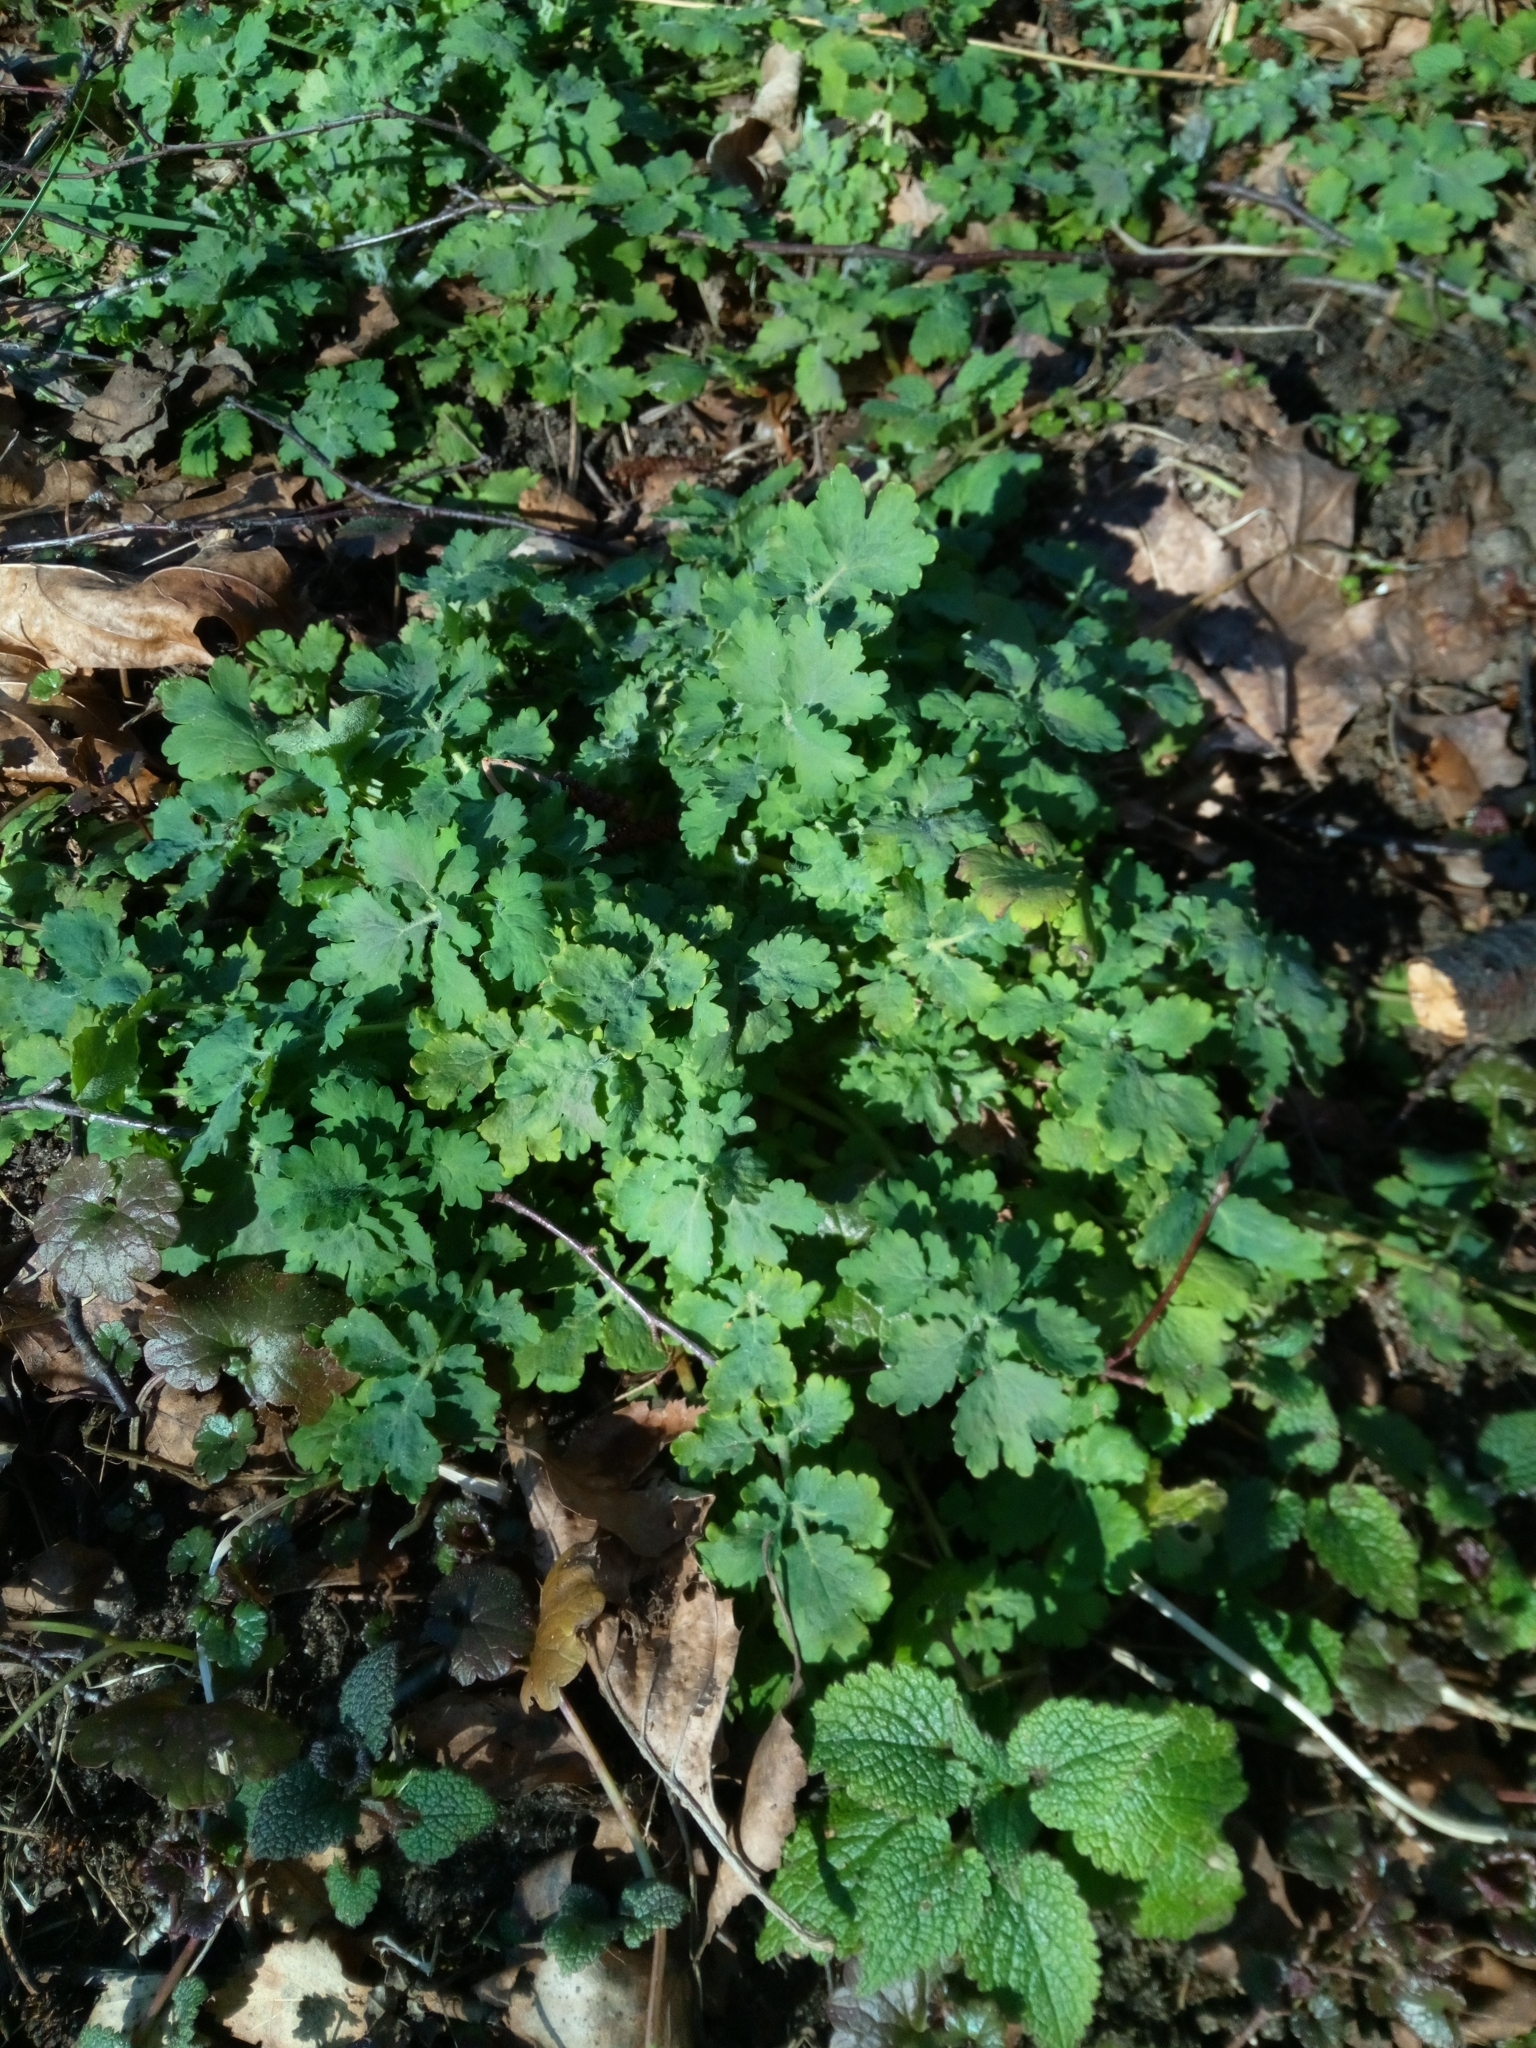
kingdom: Plantae
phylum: Tracheophyta
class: Magnoliopsida
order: Ranunculales
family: Papaveraceae
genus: Chelidonium
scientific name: Chelidonium majus
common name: Greater celandine
